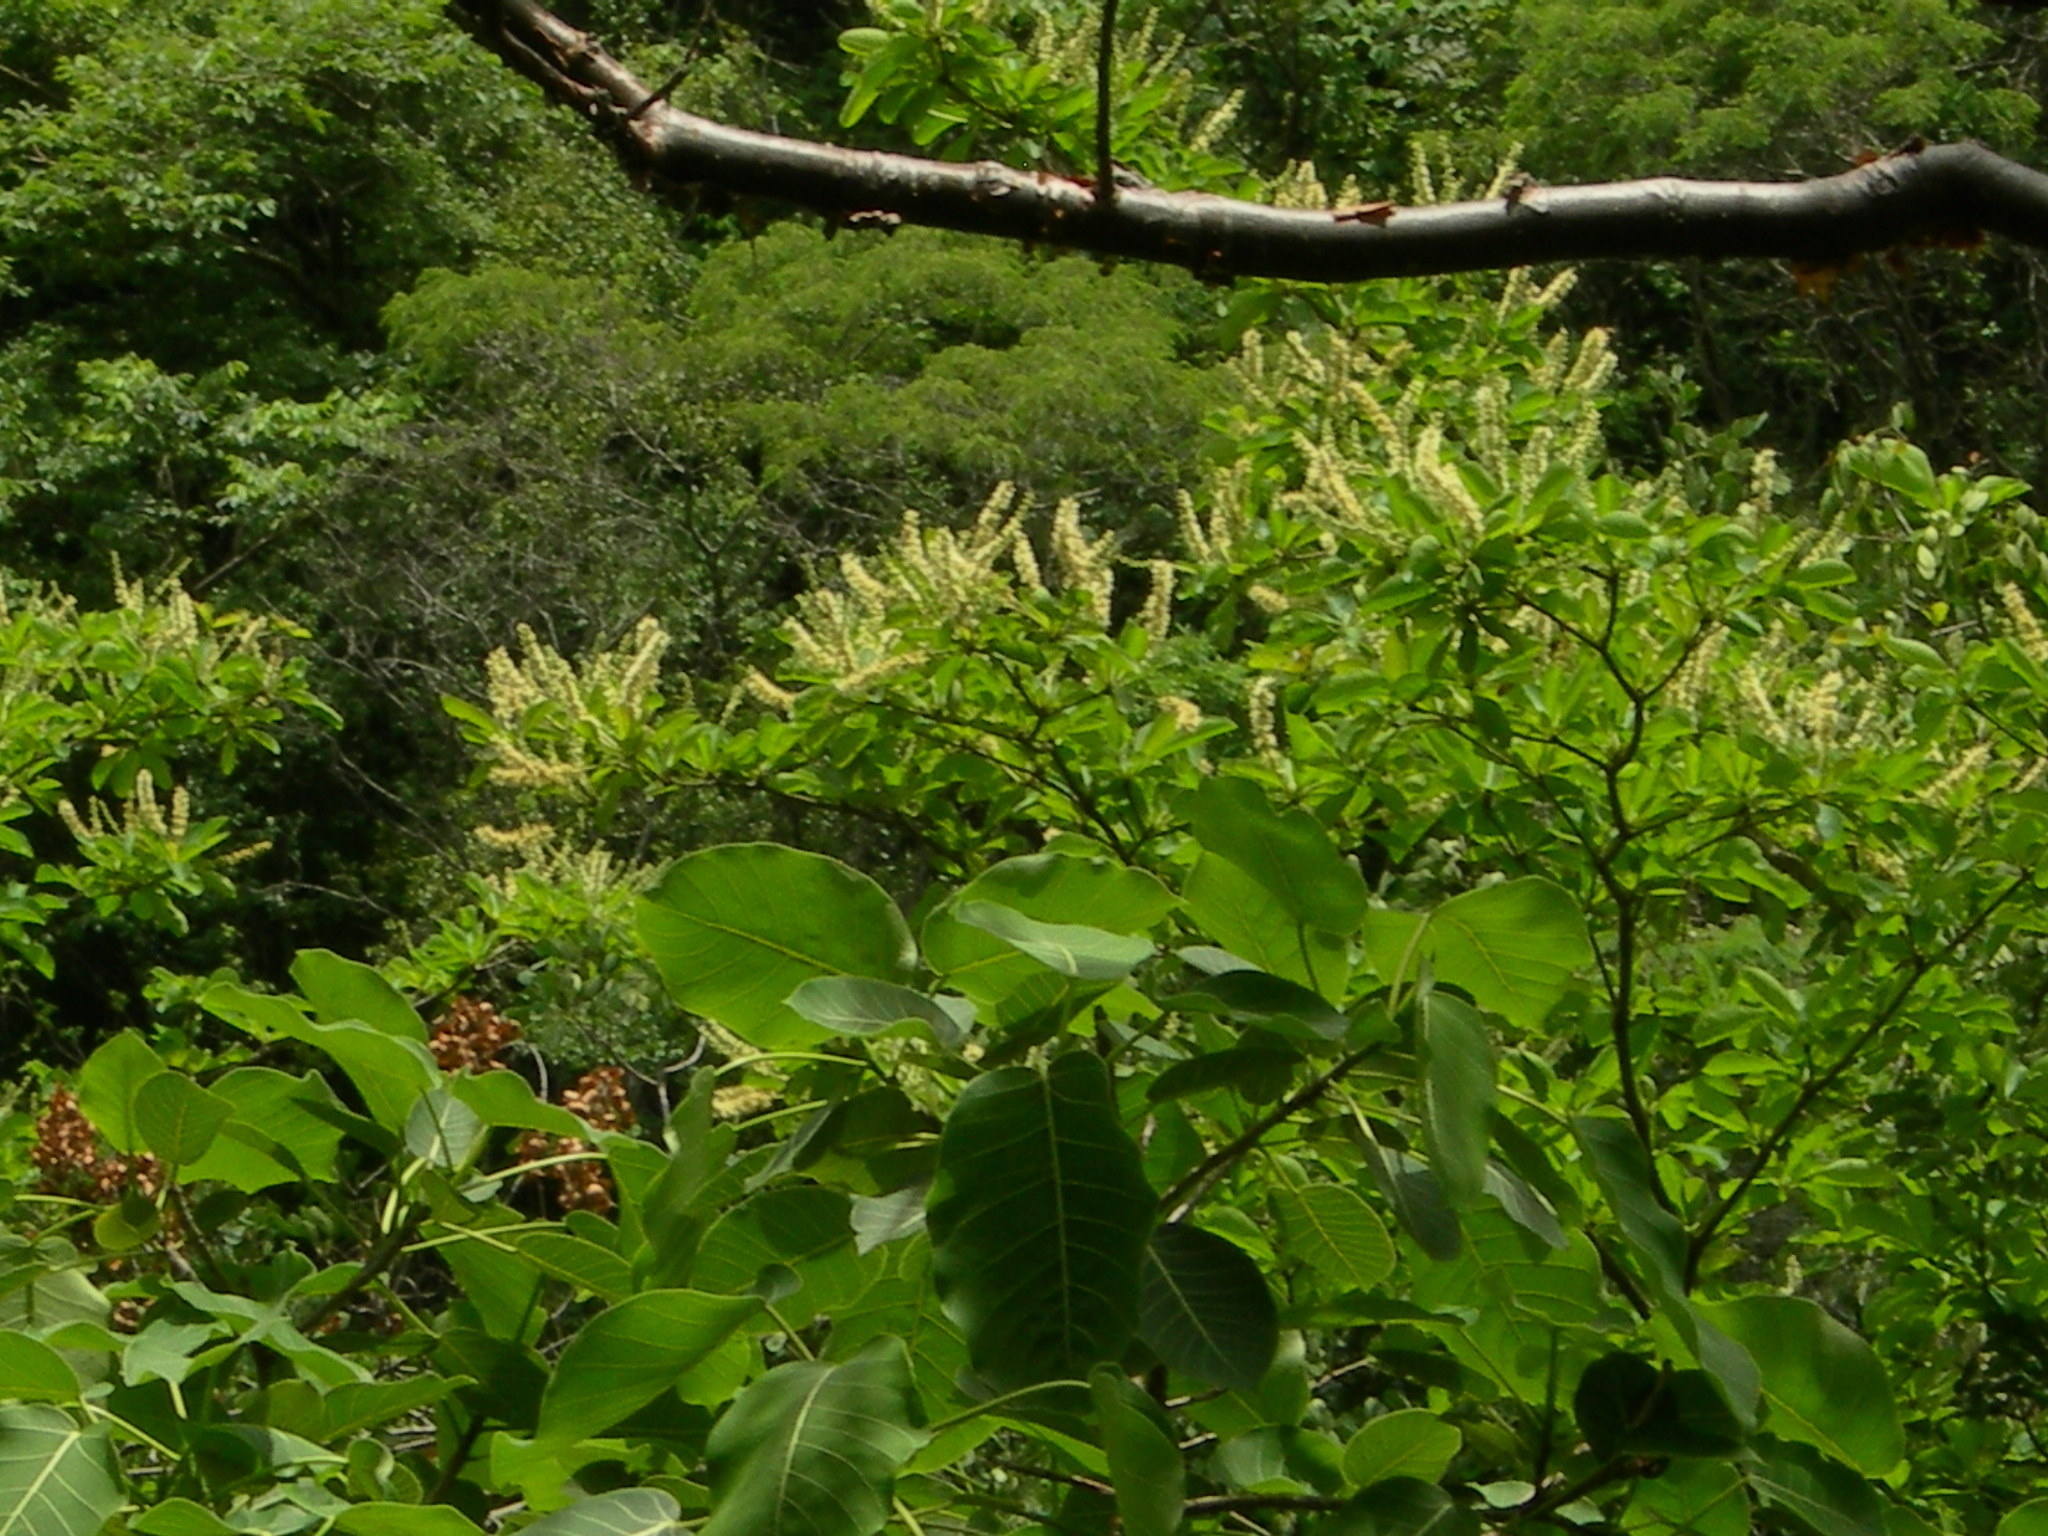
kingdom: Plantae
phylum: Tracheophyta
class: Magnoliopsida
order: Myrtales
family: Combretaceae
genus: Terminalia
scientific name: Terminalia macrostachya
